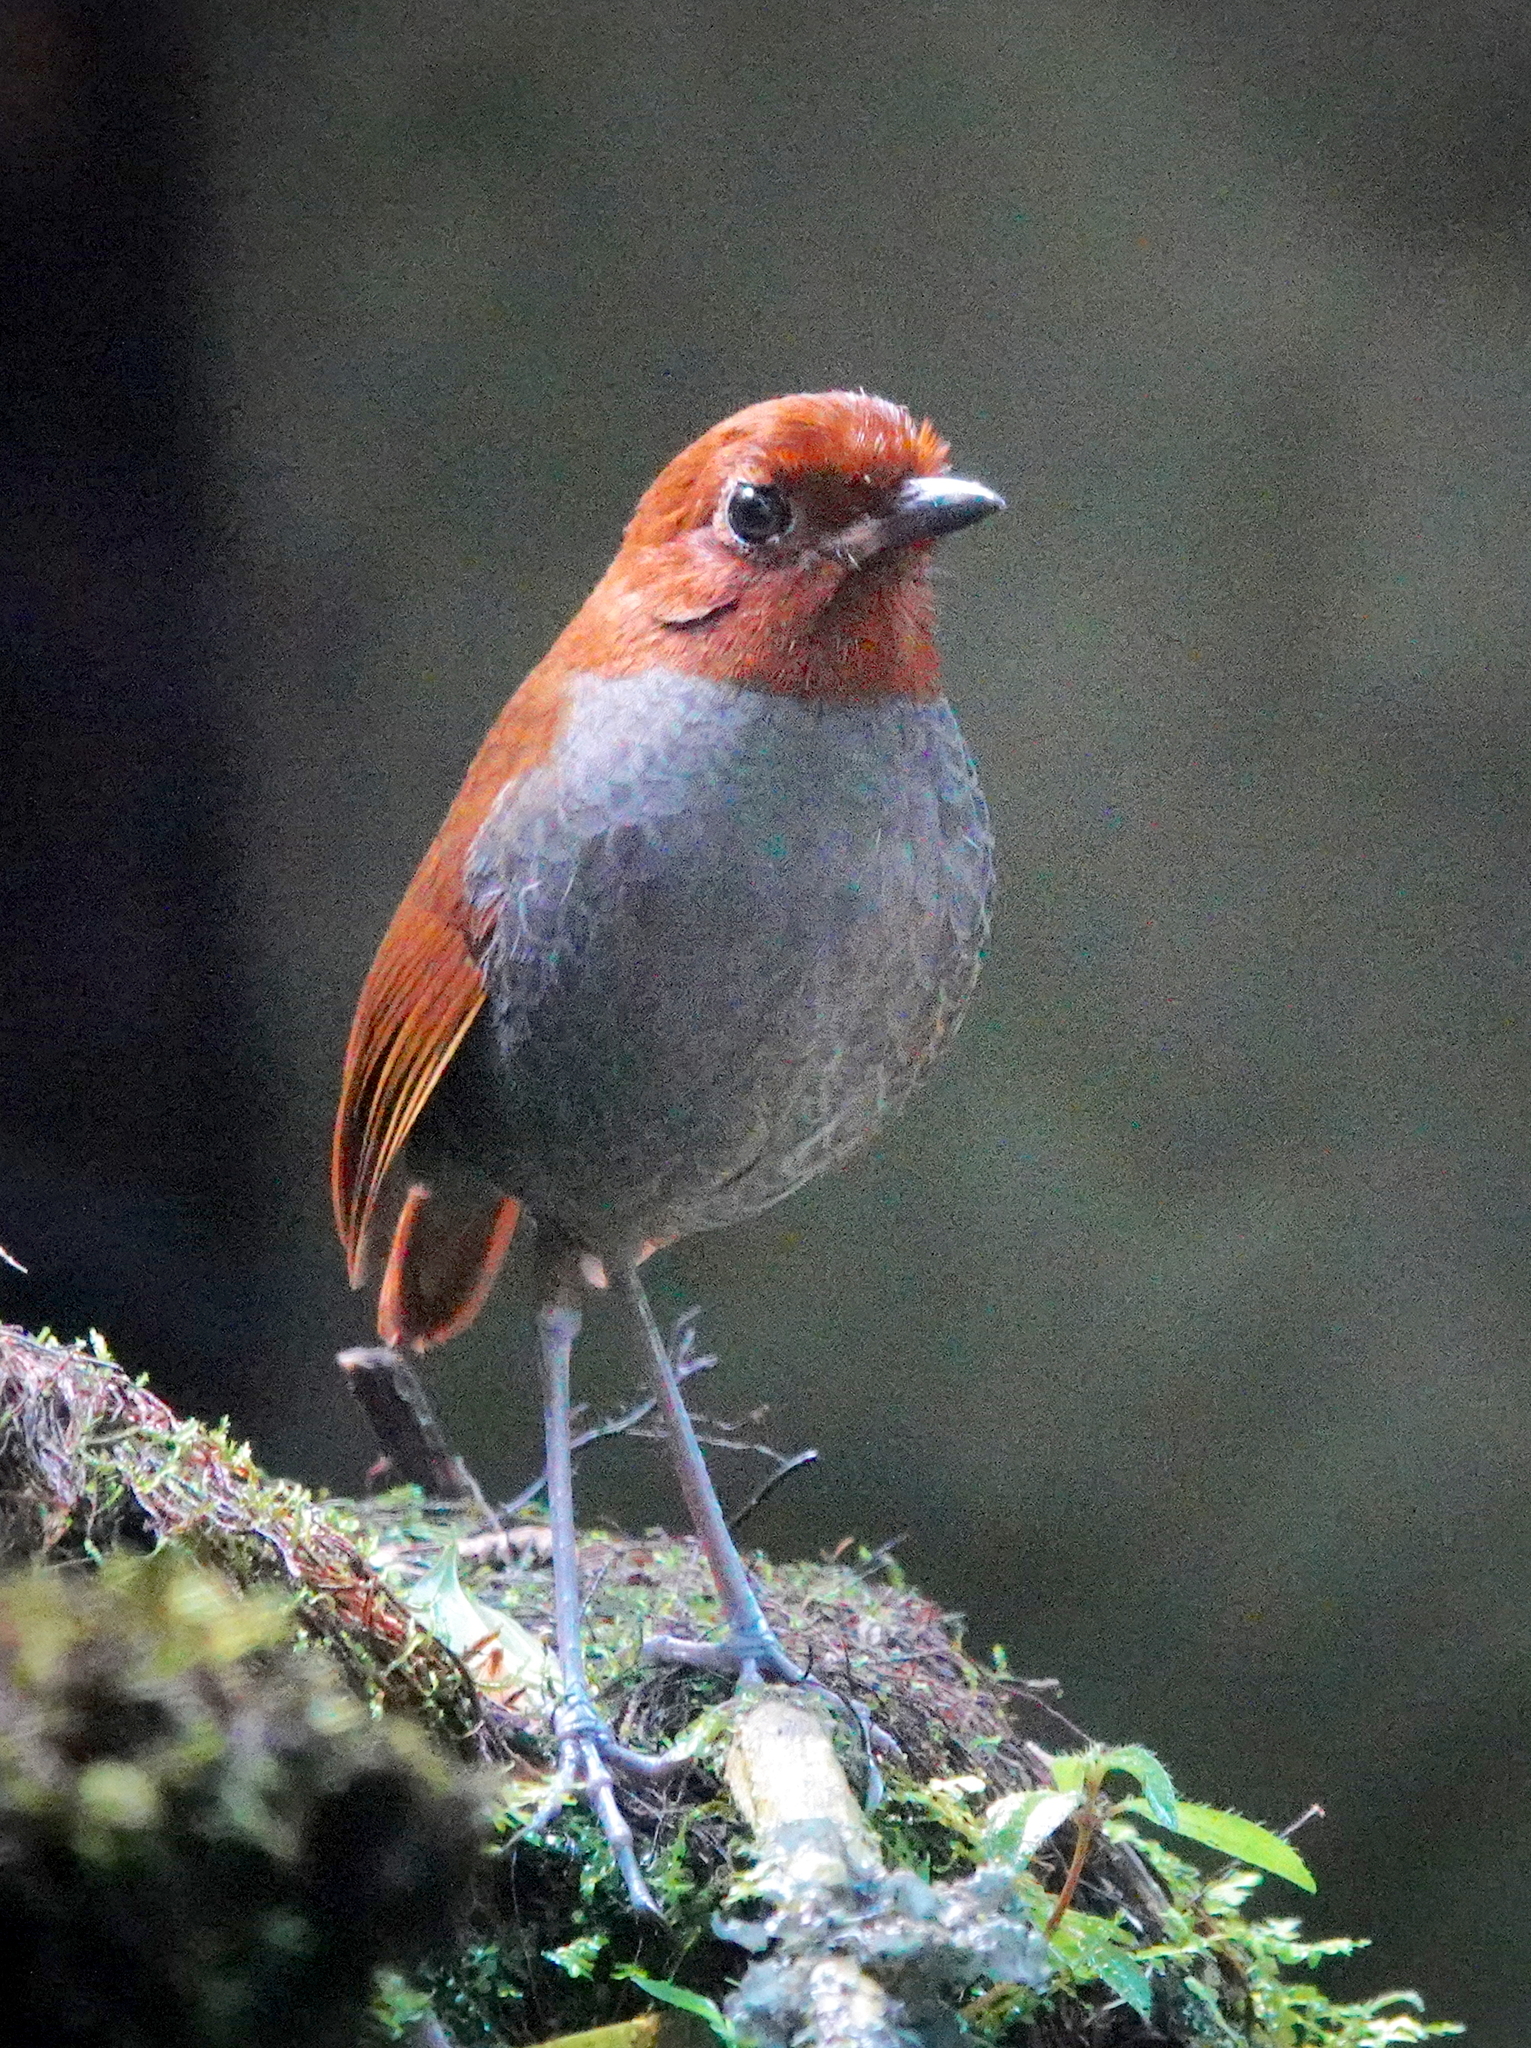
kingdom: Animalia
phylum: Chordata
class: Aves
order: Passeriformes
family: Grallariidae
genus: Grallaria
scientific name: Grallaria rufocinerea
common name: Bicolored antpitta
